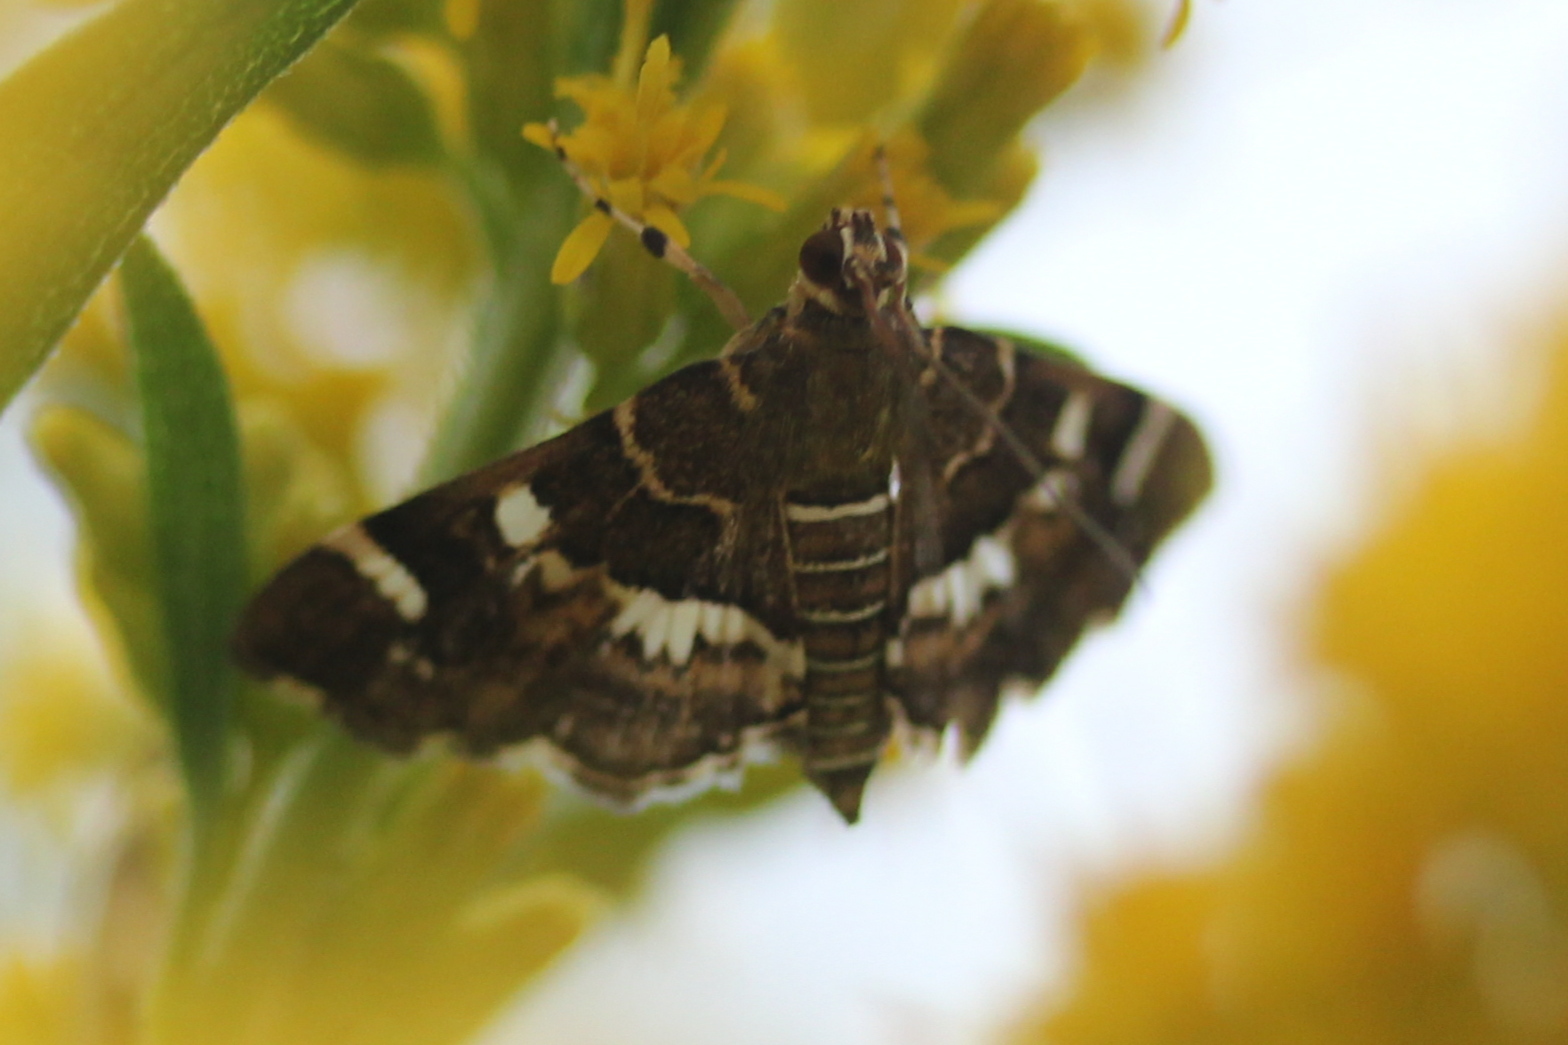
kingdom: Animalia
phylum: Arthropoda
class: Insecta
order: Lepidoptera
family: Crambidae
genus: Hymenia
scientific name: Hymenia perspectalis
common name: Spotted beet webworm
